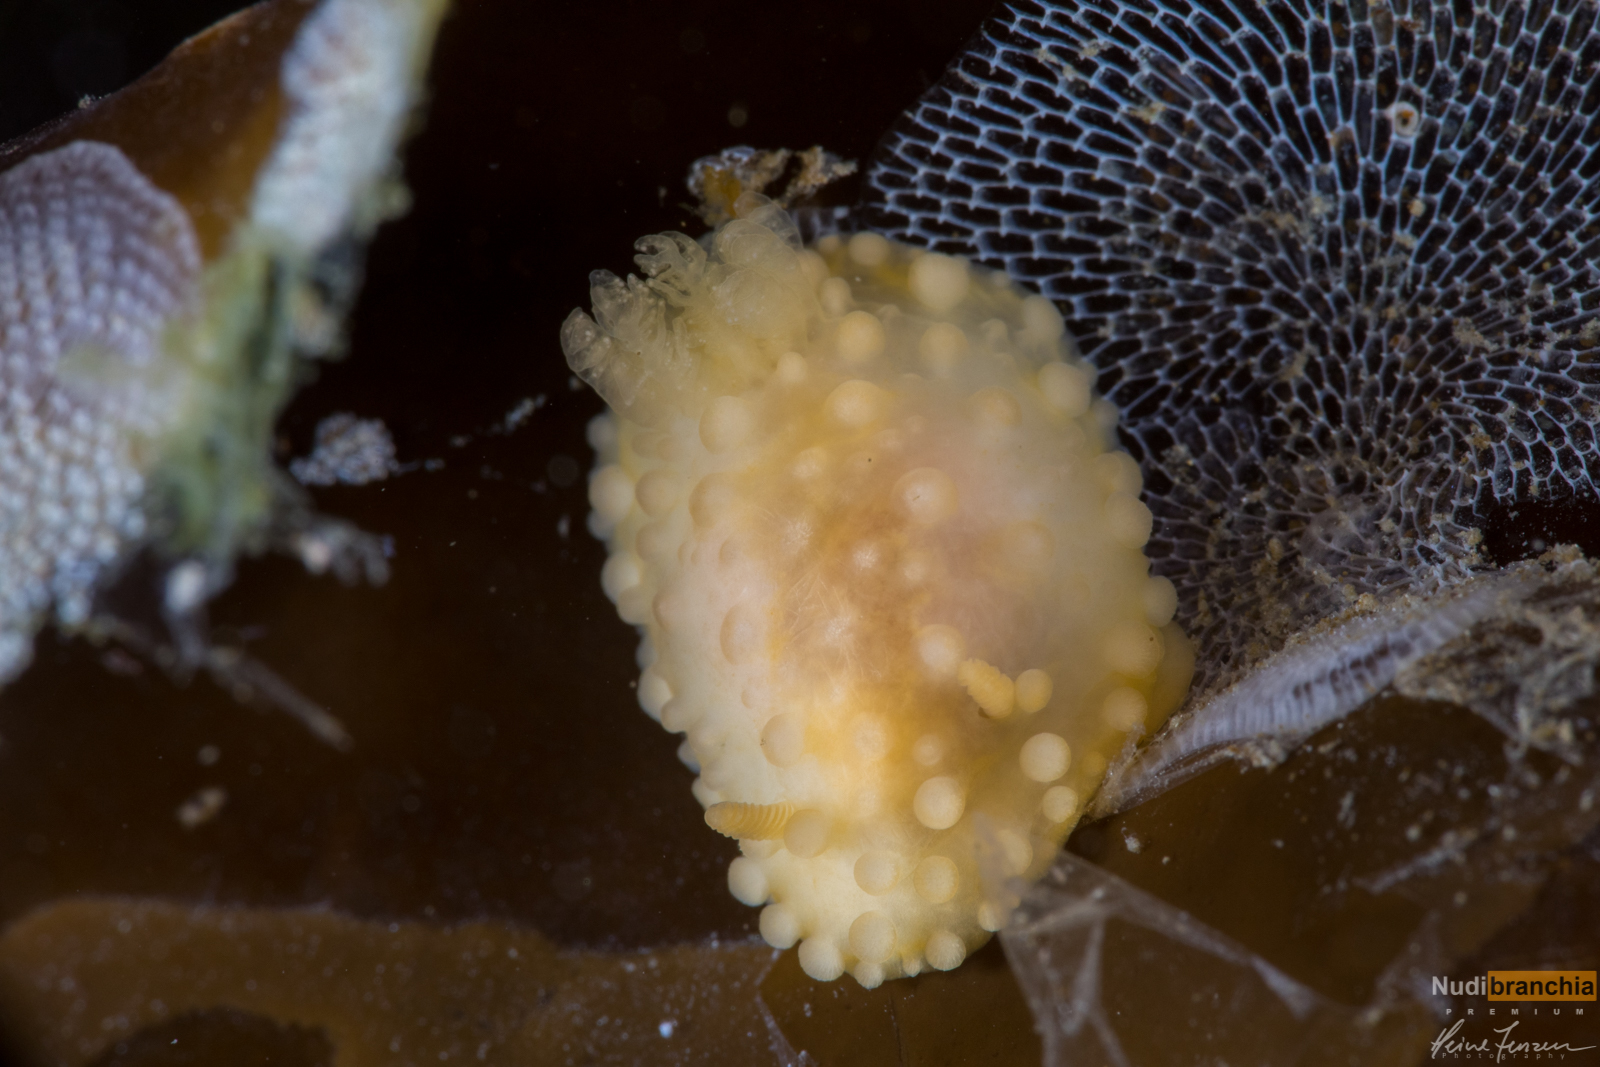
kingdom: Animalia
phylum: Mollusca
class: Gastropoda
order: Nudibranchia
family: Onchidorididae
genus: Adalaria
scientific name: Adalaria loveni
